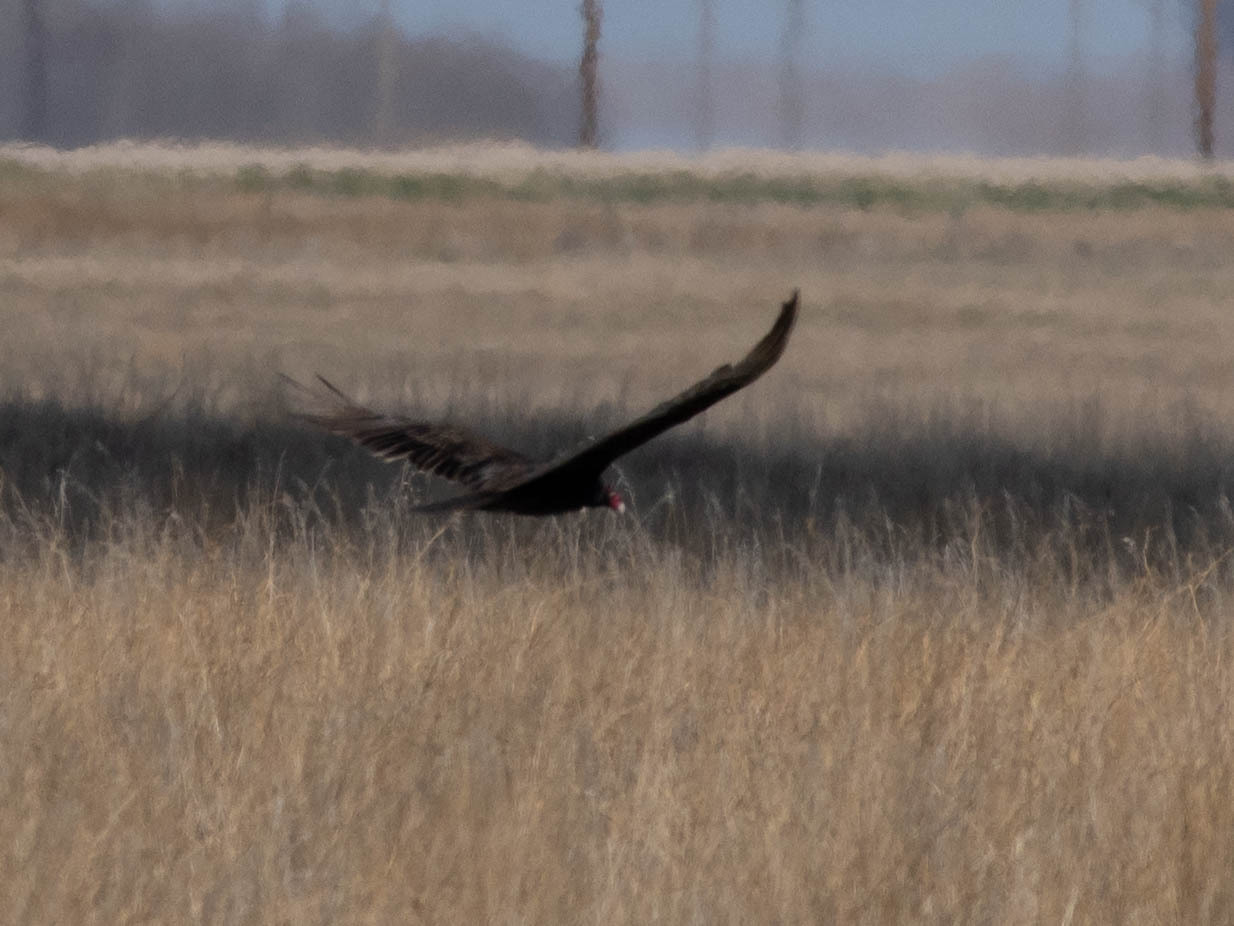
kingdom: Animalia
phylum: Chordata
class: Aves
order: Accipitriformes
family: Cathartidae
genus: Cathartes
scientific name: Cathartes aura
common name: Turkey vulture
